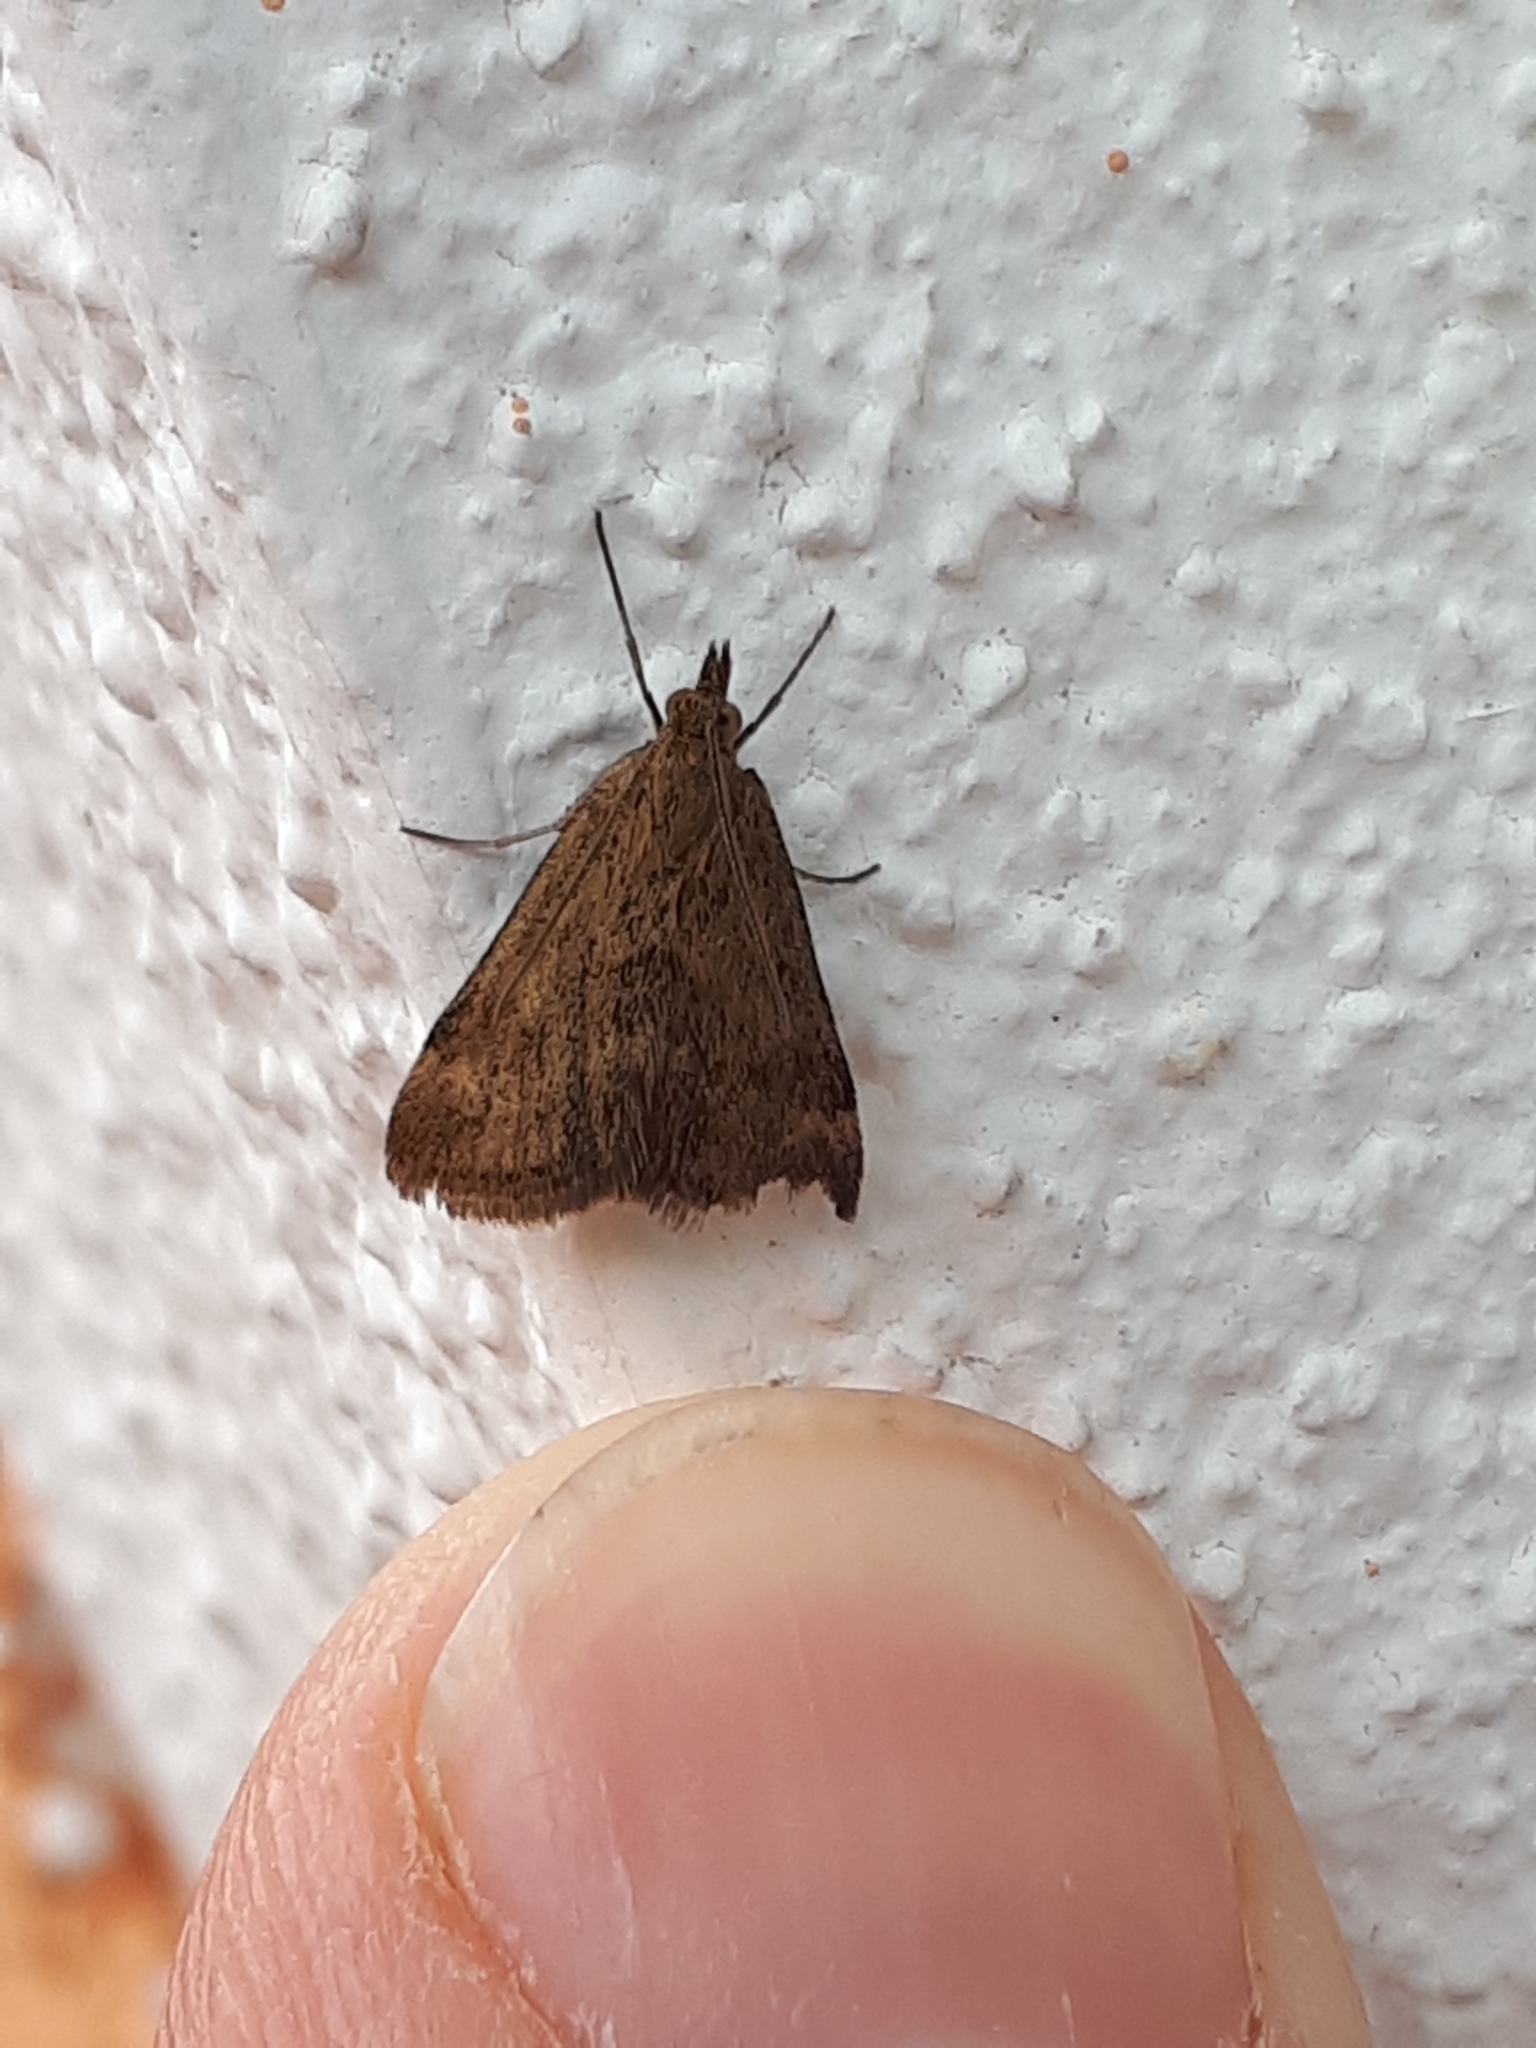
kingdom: Animalia
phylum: Arthropoda
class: Insecta
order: Lepidoptera
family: Crambidae
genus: Pyrausta
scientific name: Pyrausta despicata
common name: Straw-barred pearl
